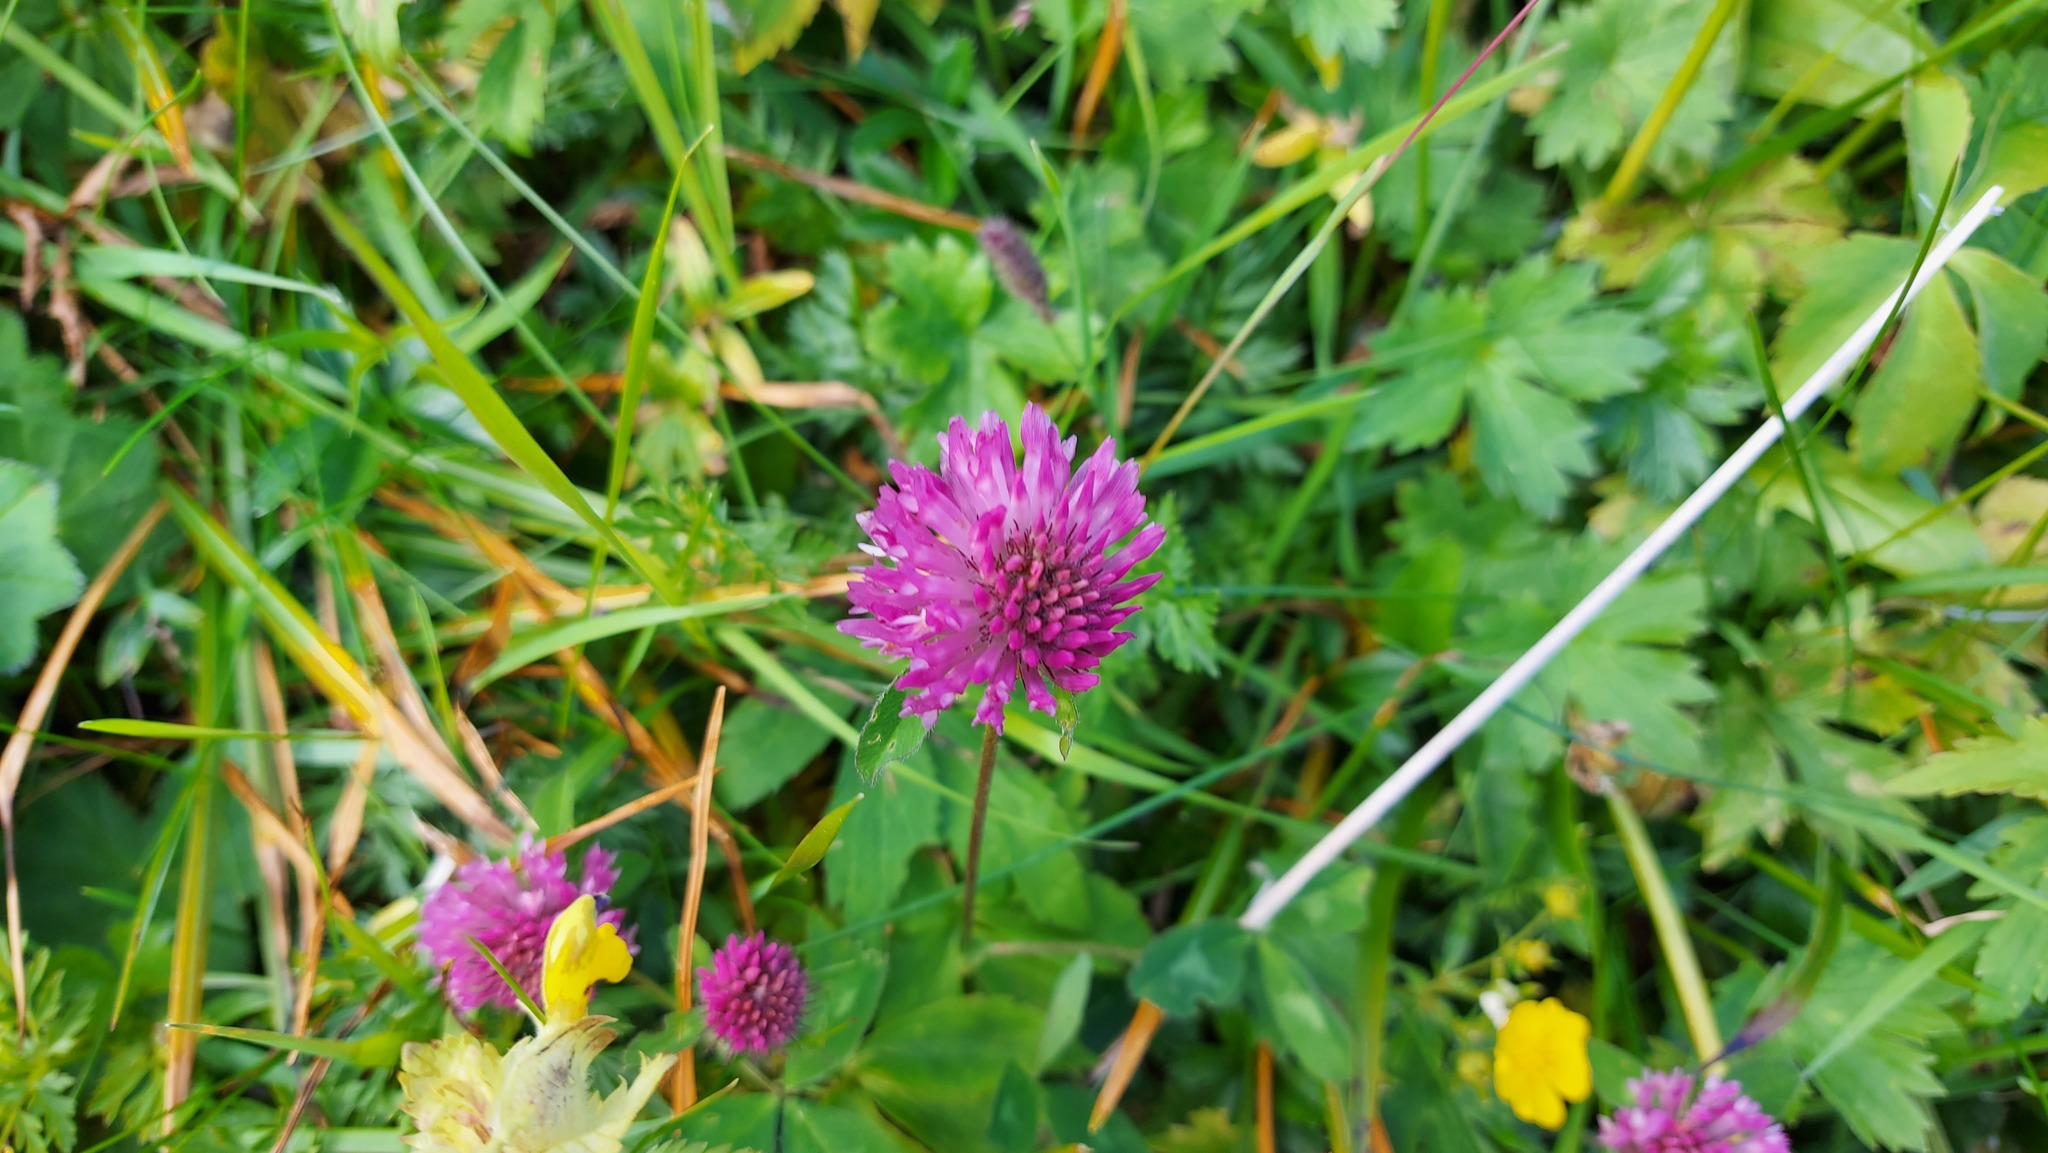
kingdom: Plantae
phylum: Tracheophyta
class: Magnoliopsida
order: Fabales
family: Fabaceae
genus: Trifolium
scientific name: Trifolium pratense
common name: Red clover
